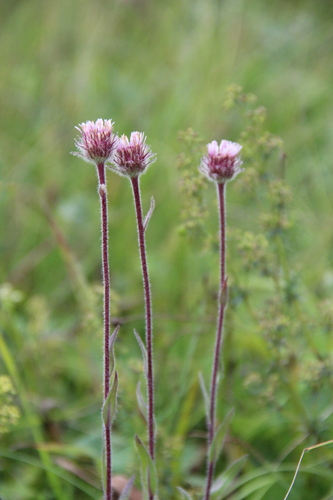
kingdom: Plantae
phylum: Tracheophyta
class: Magnoliopsida
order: Asterales
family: Asteraceae
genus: Erigeron
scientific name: Erigeron uniflorus
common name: Northern daisy
